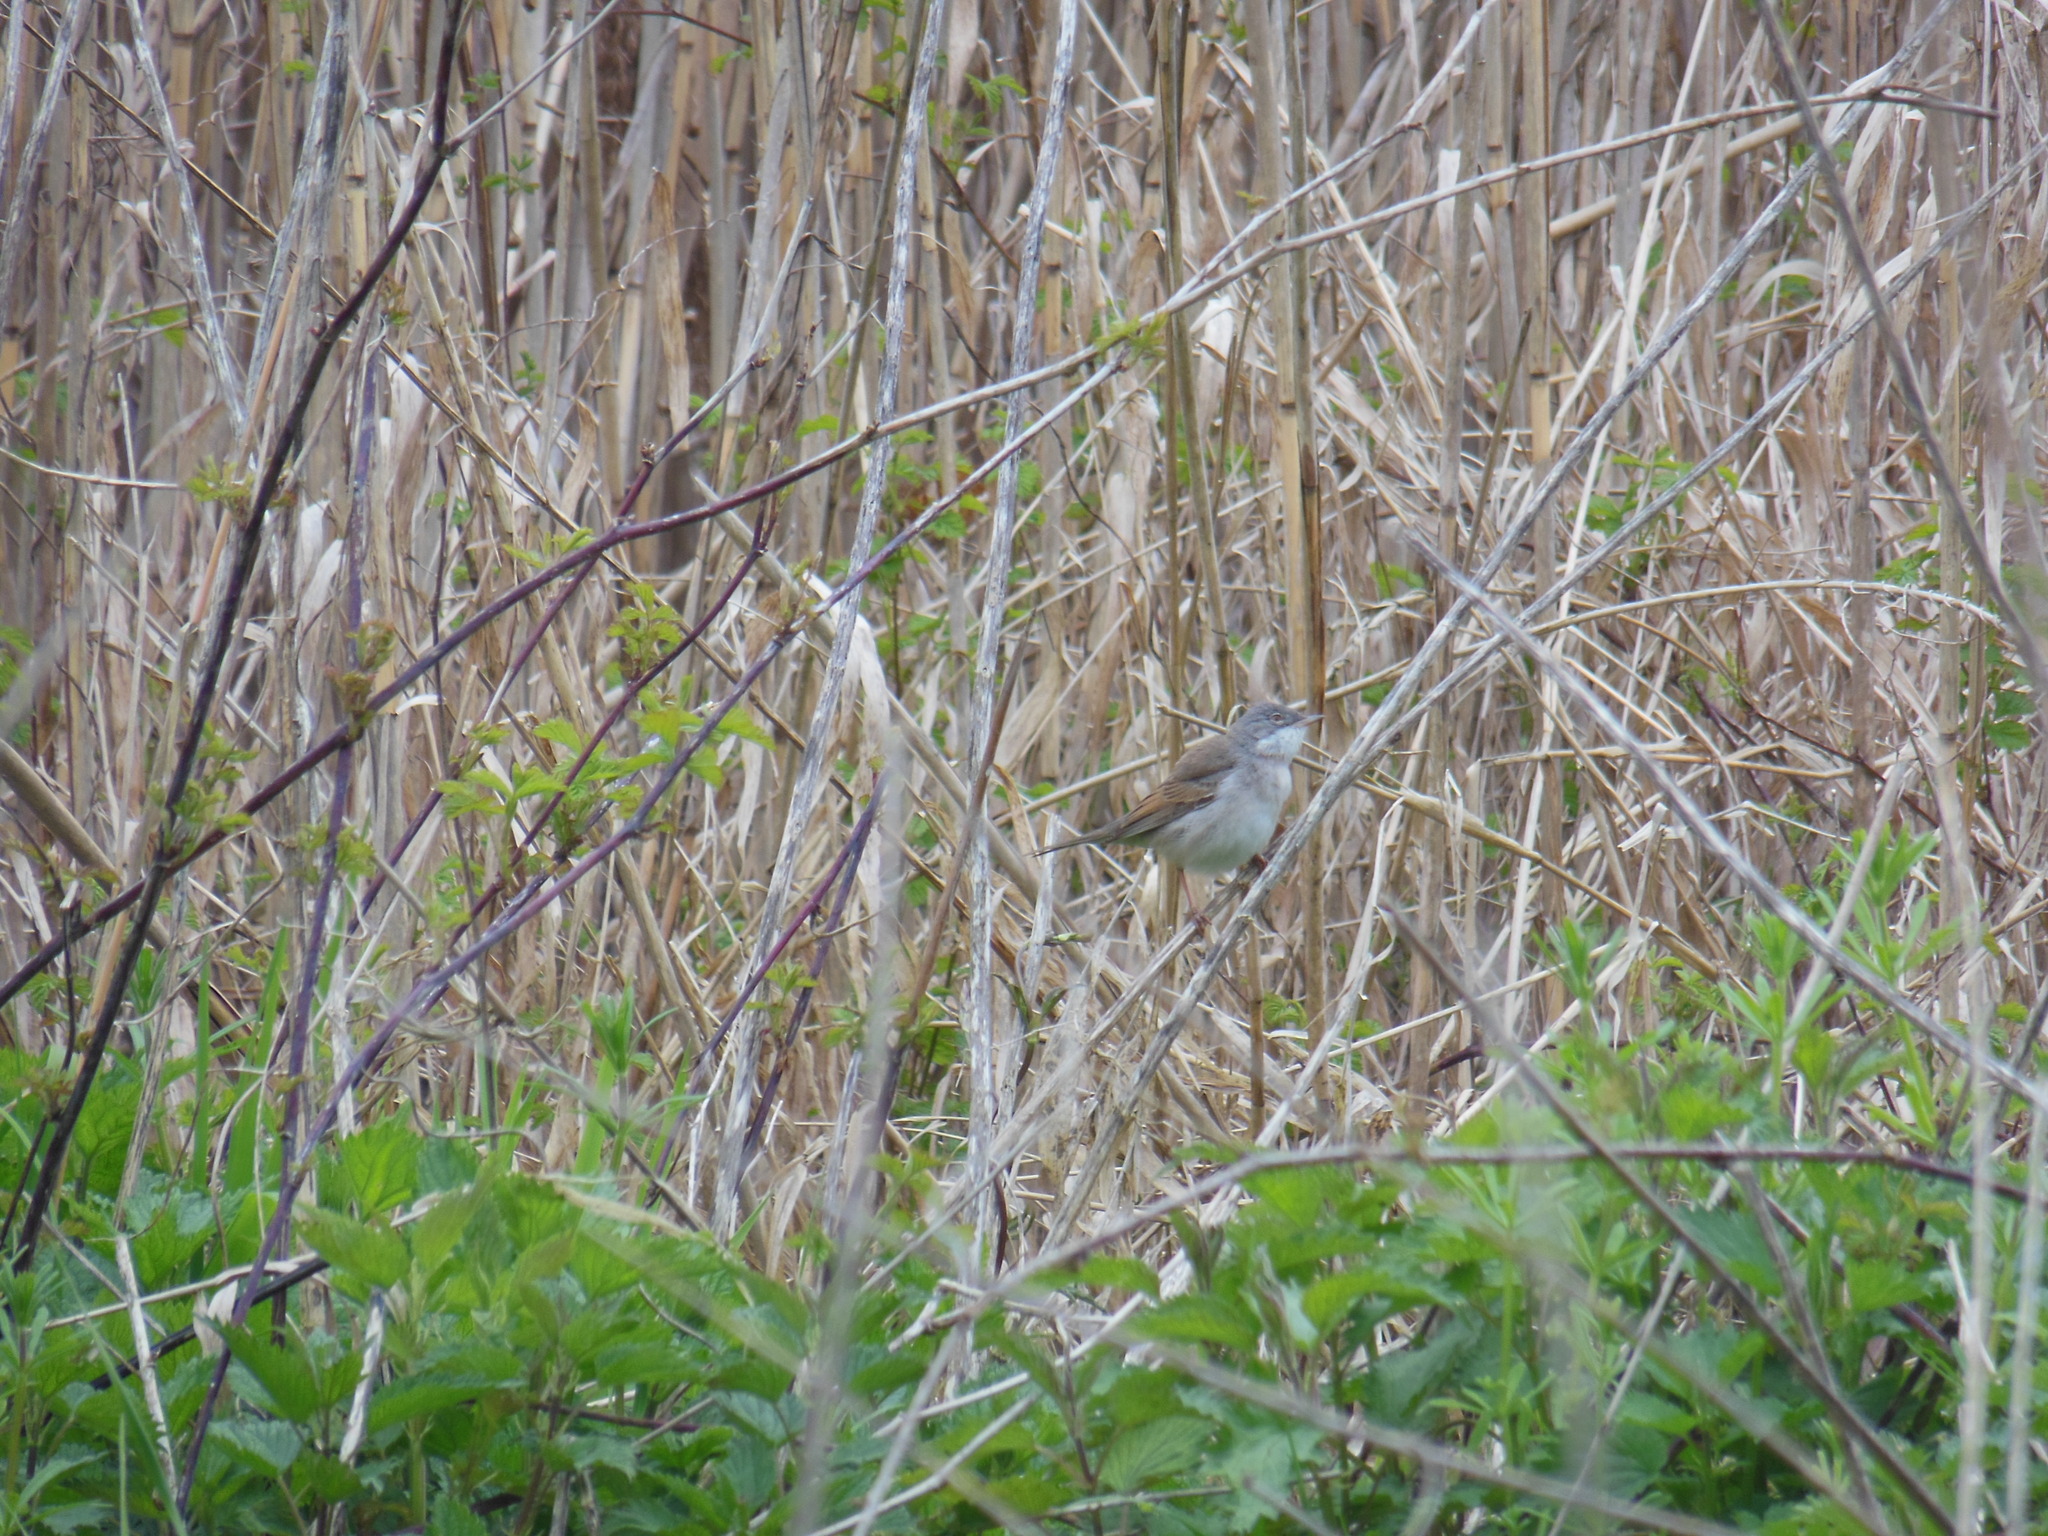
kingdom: Animalia
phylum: Chordata
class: Aves
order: Passeriformes
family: Sylviidae
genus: Sylvia
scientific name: Sylvia communis
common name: Common whitethroat
